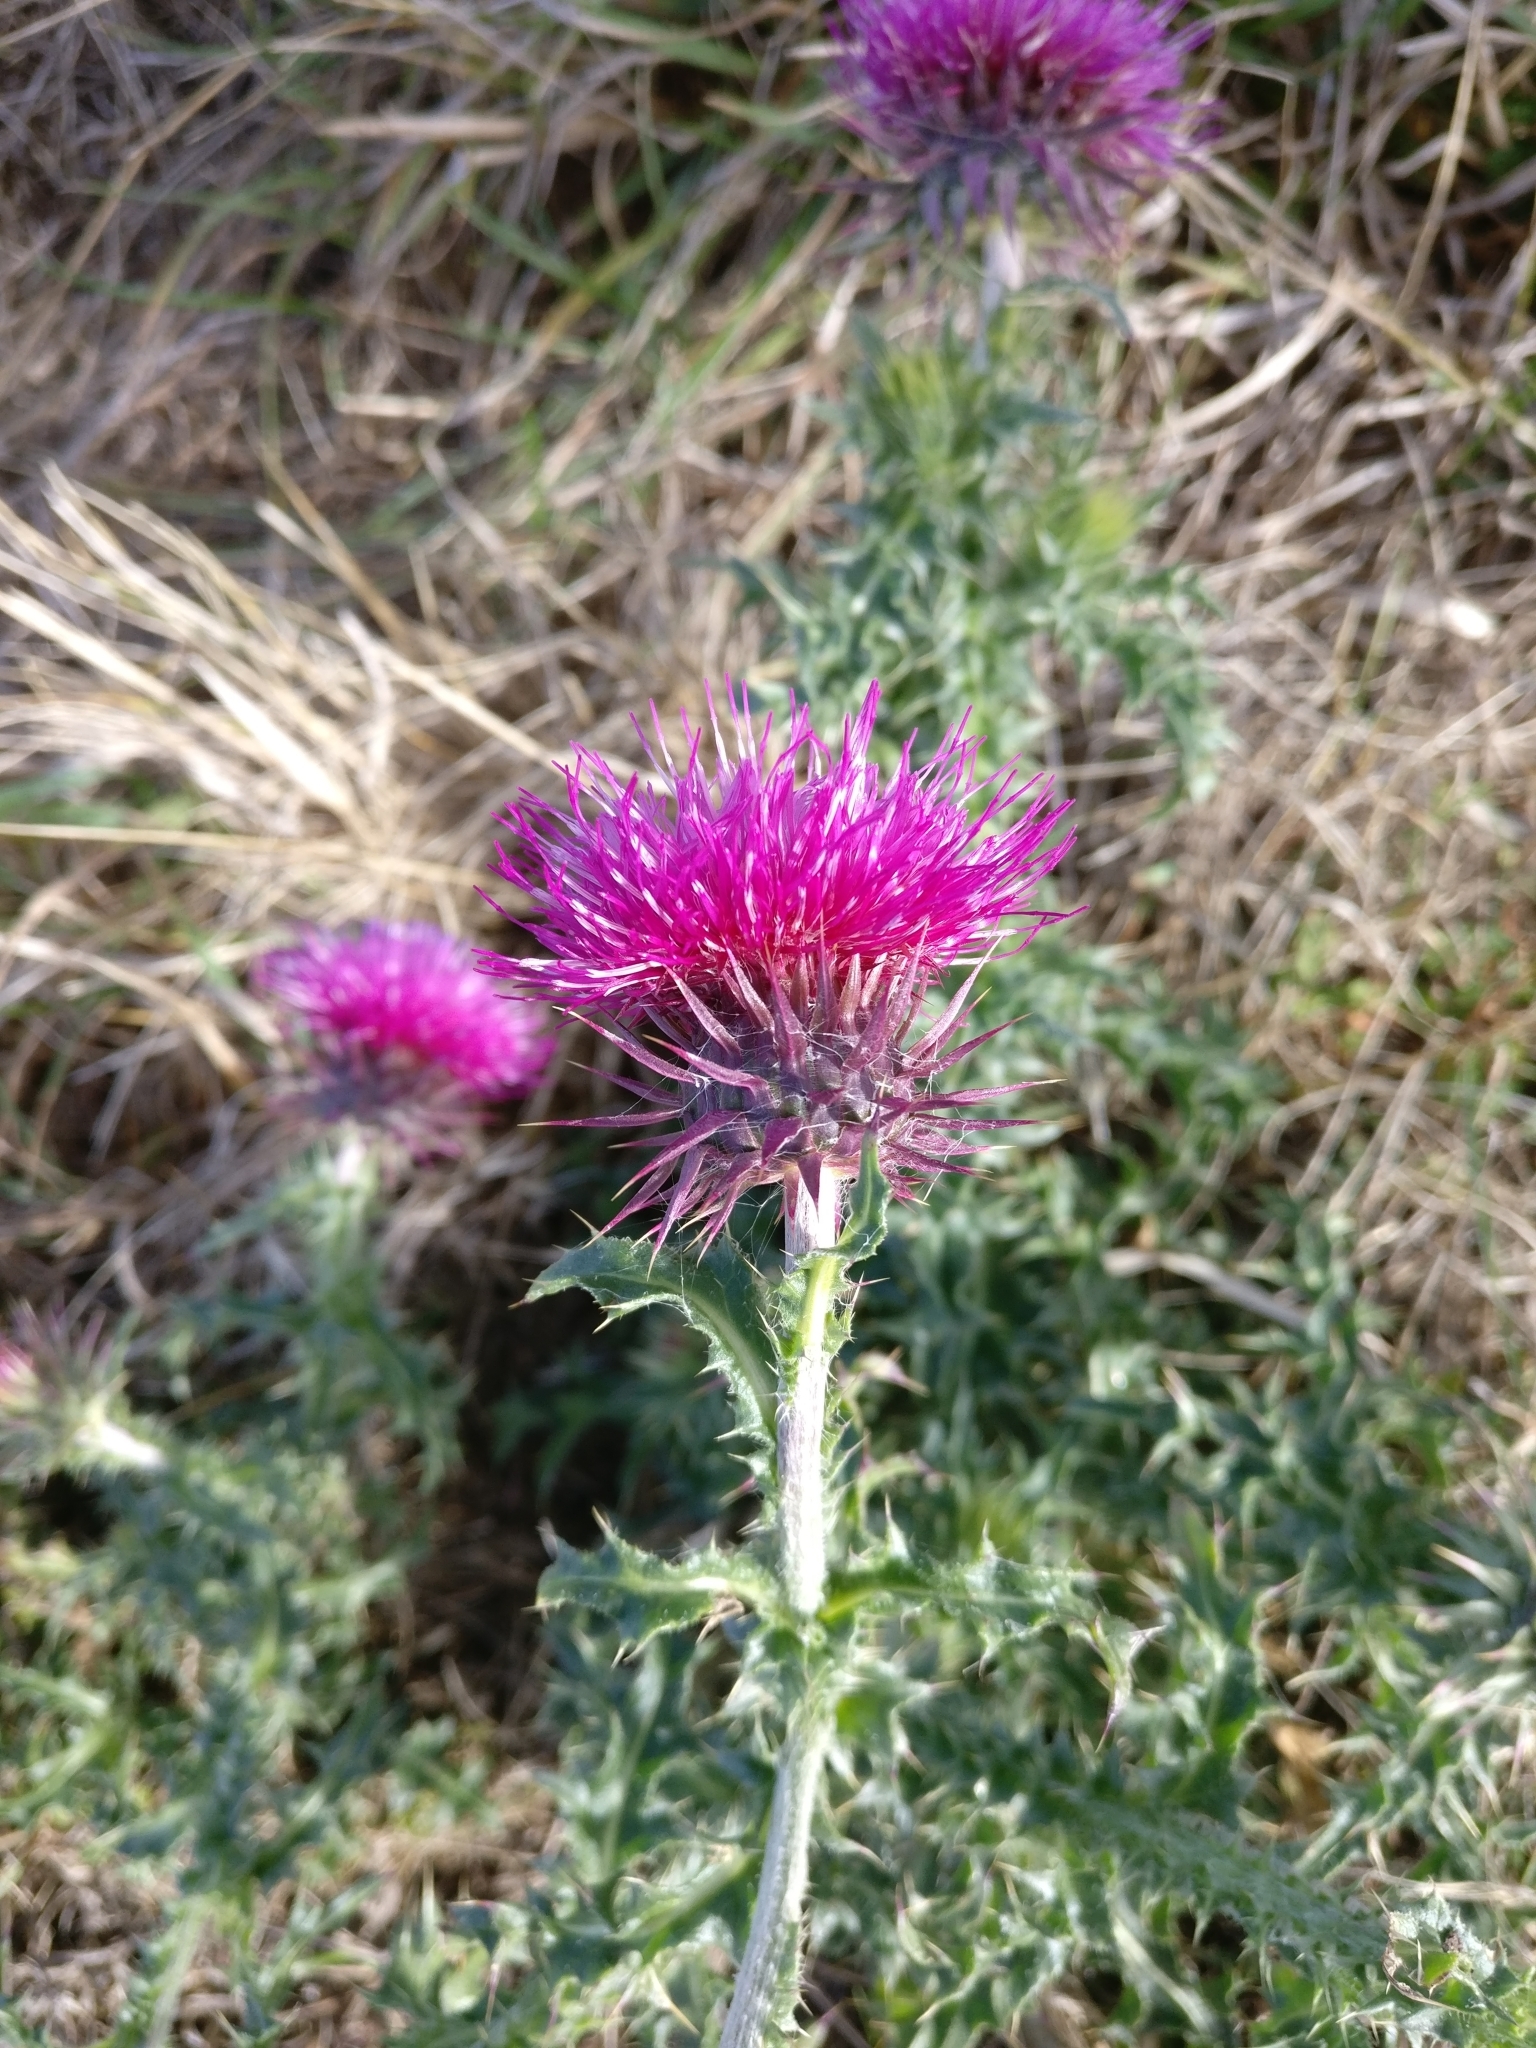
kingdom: Plantae
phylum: Tracheophyta
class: Magnoliopsida
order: Asterales
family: Asteraceae
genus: Carduus
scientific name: Carduus nutans
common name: Musk thistle
